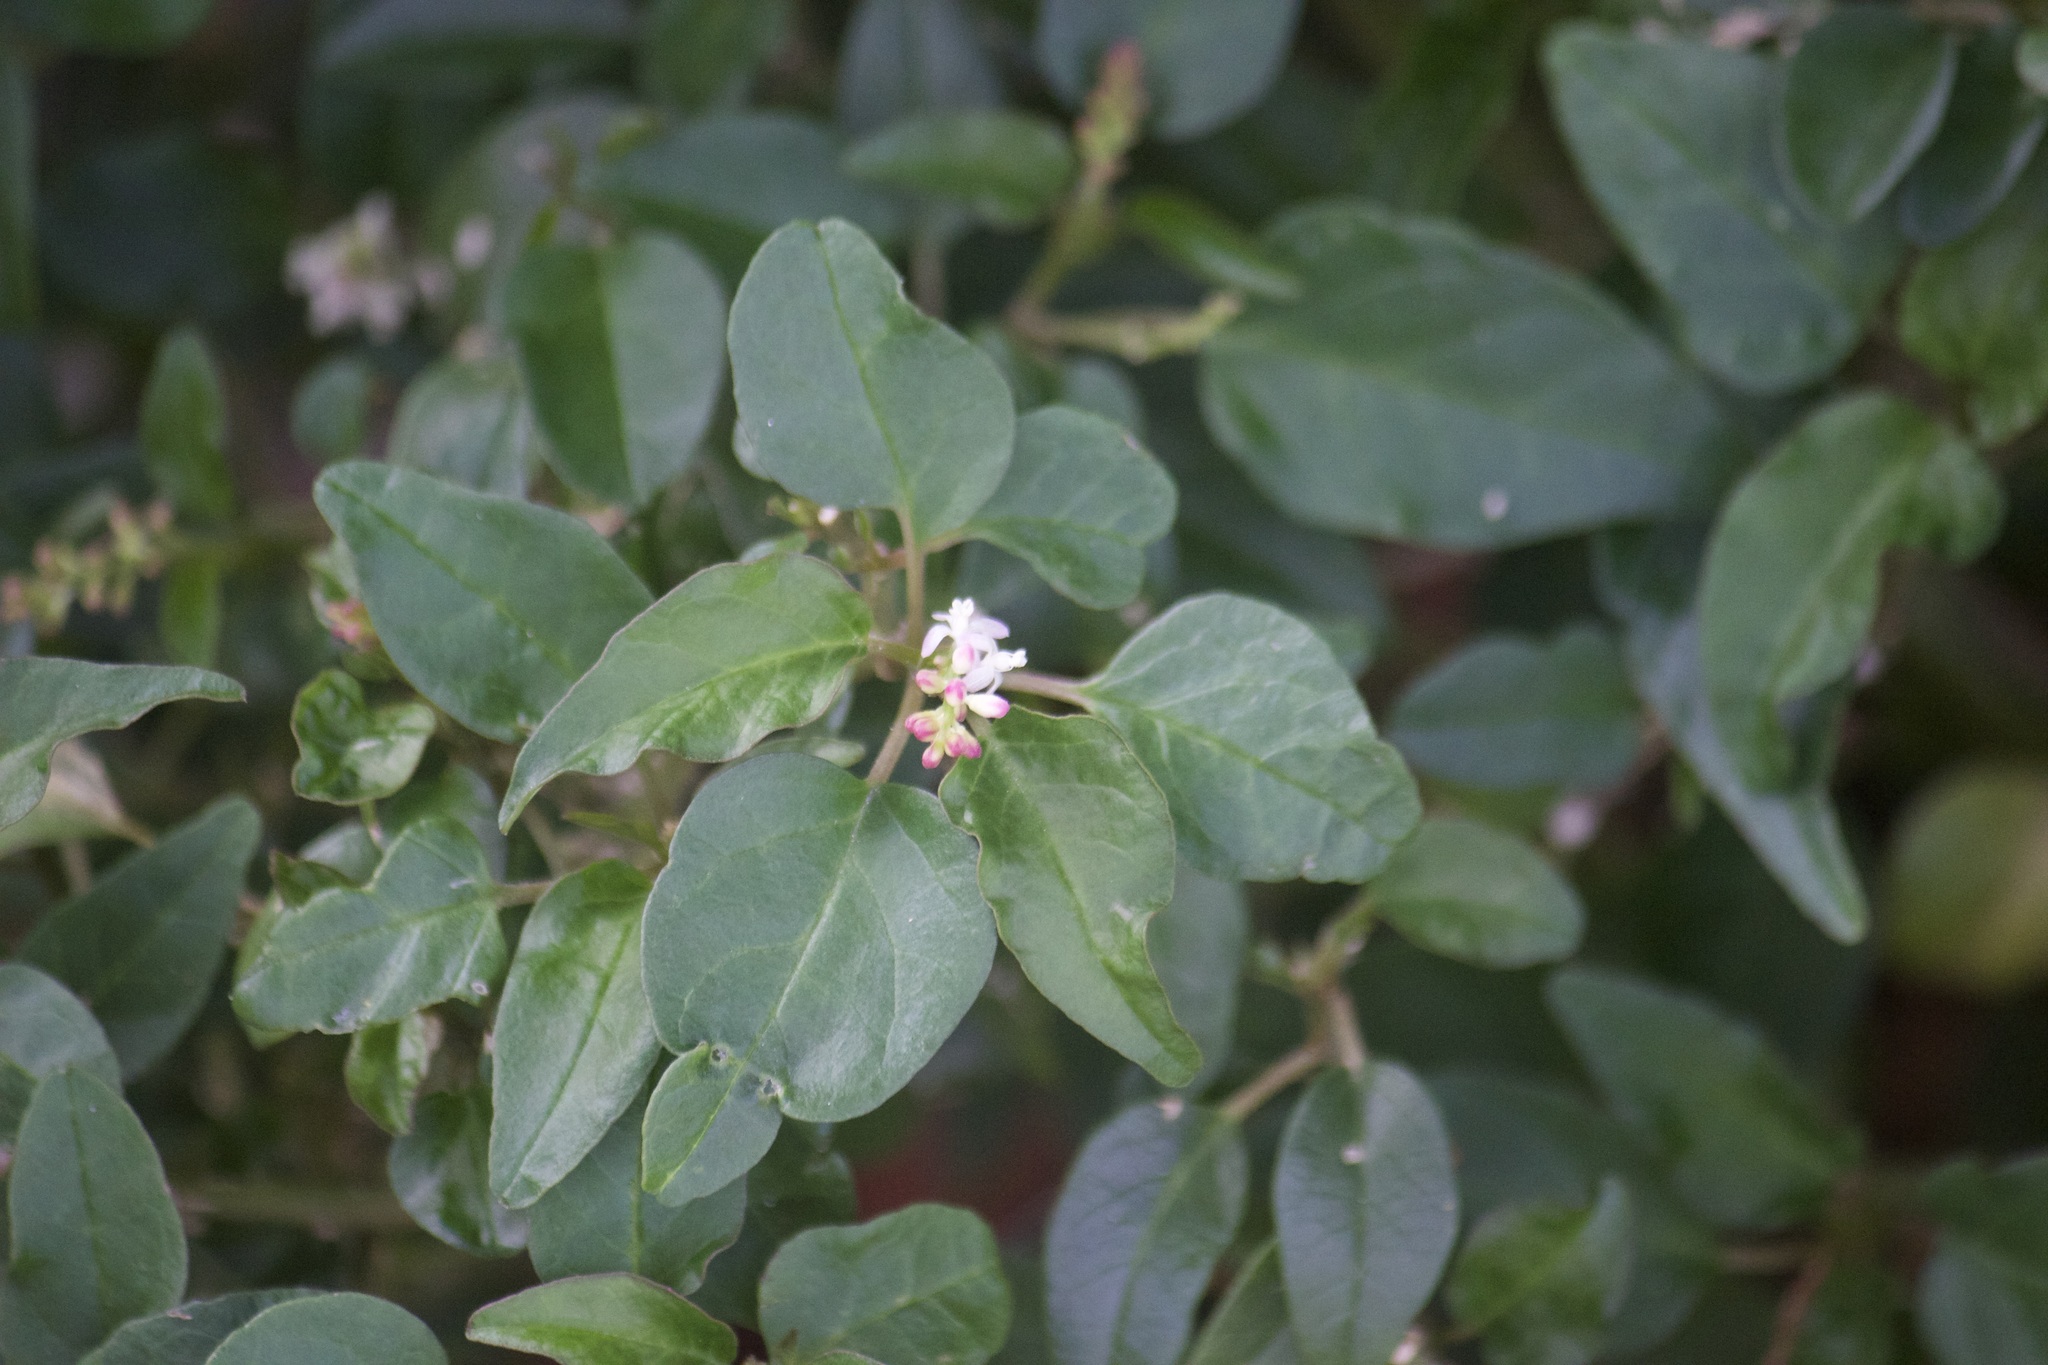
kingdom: Plantae
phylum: Tracheophyta
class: Magnoliopsida
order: Caryophyllales
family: Phytolaccaceae
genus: Rivina
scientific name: Rivina humilis
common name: Rougeplant
